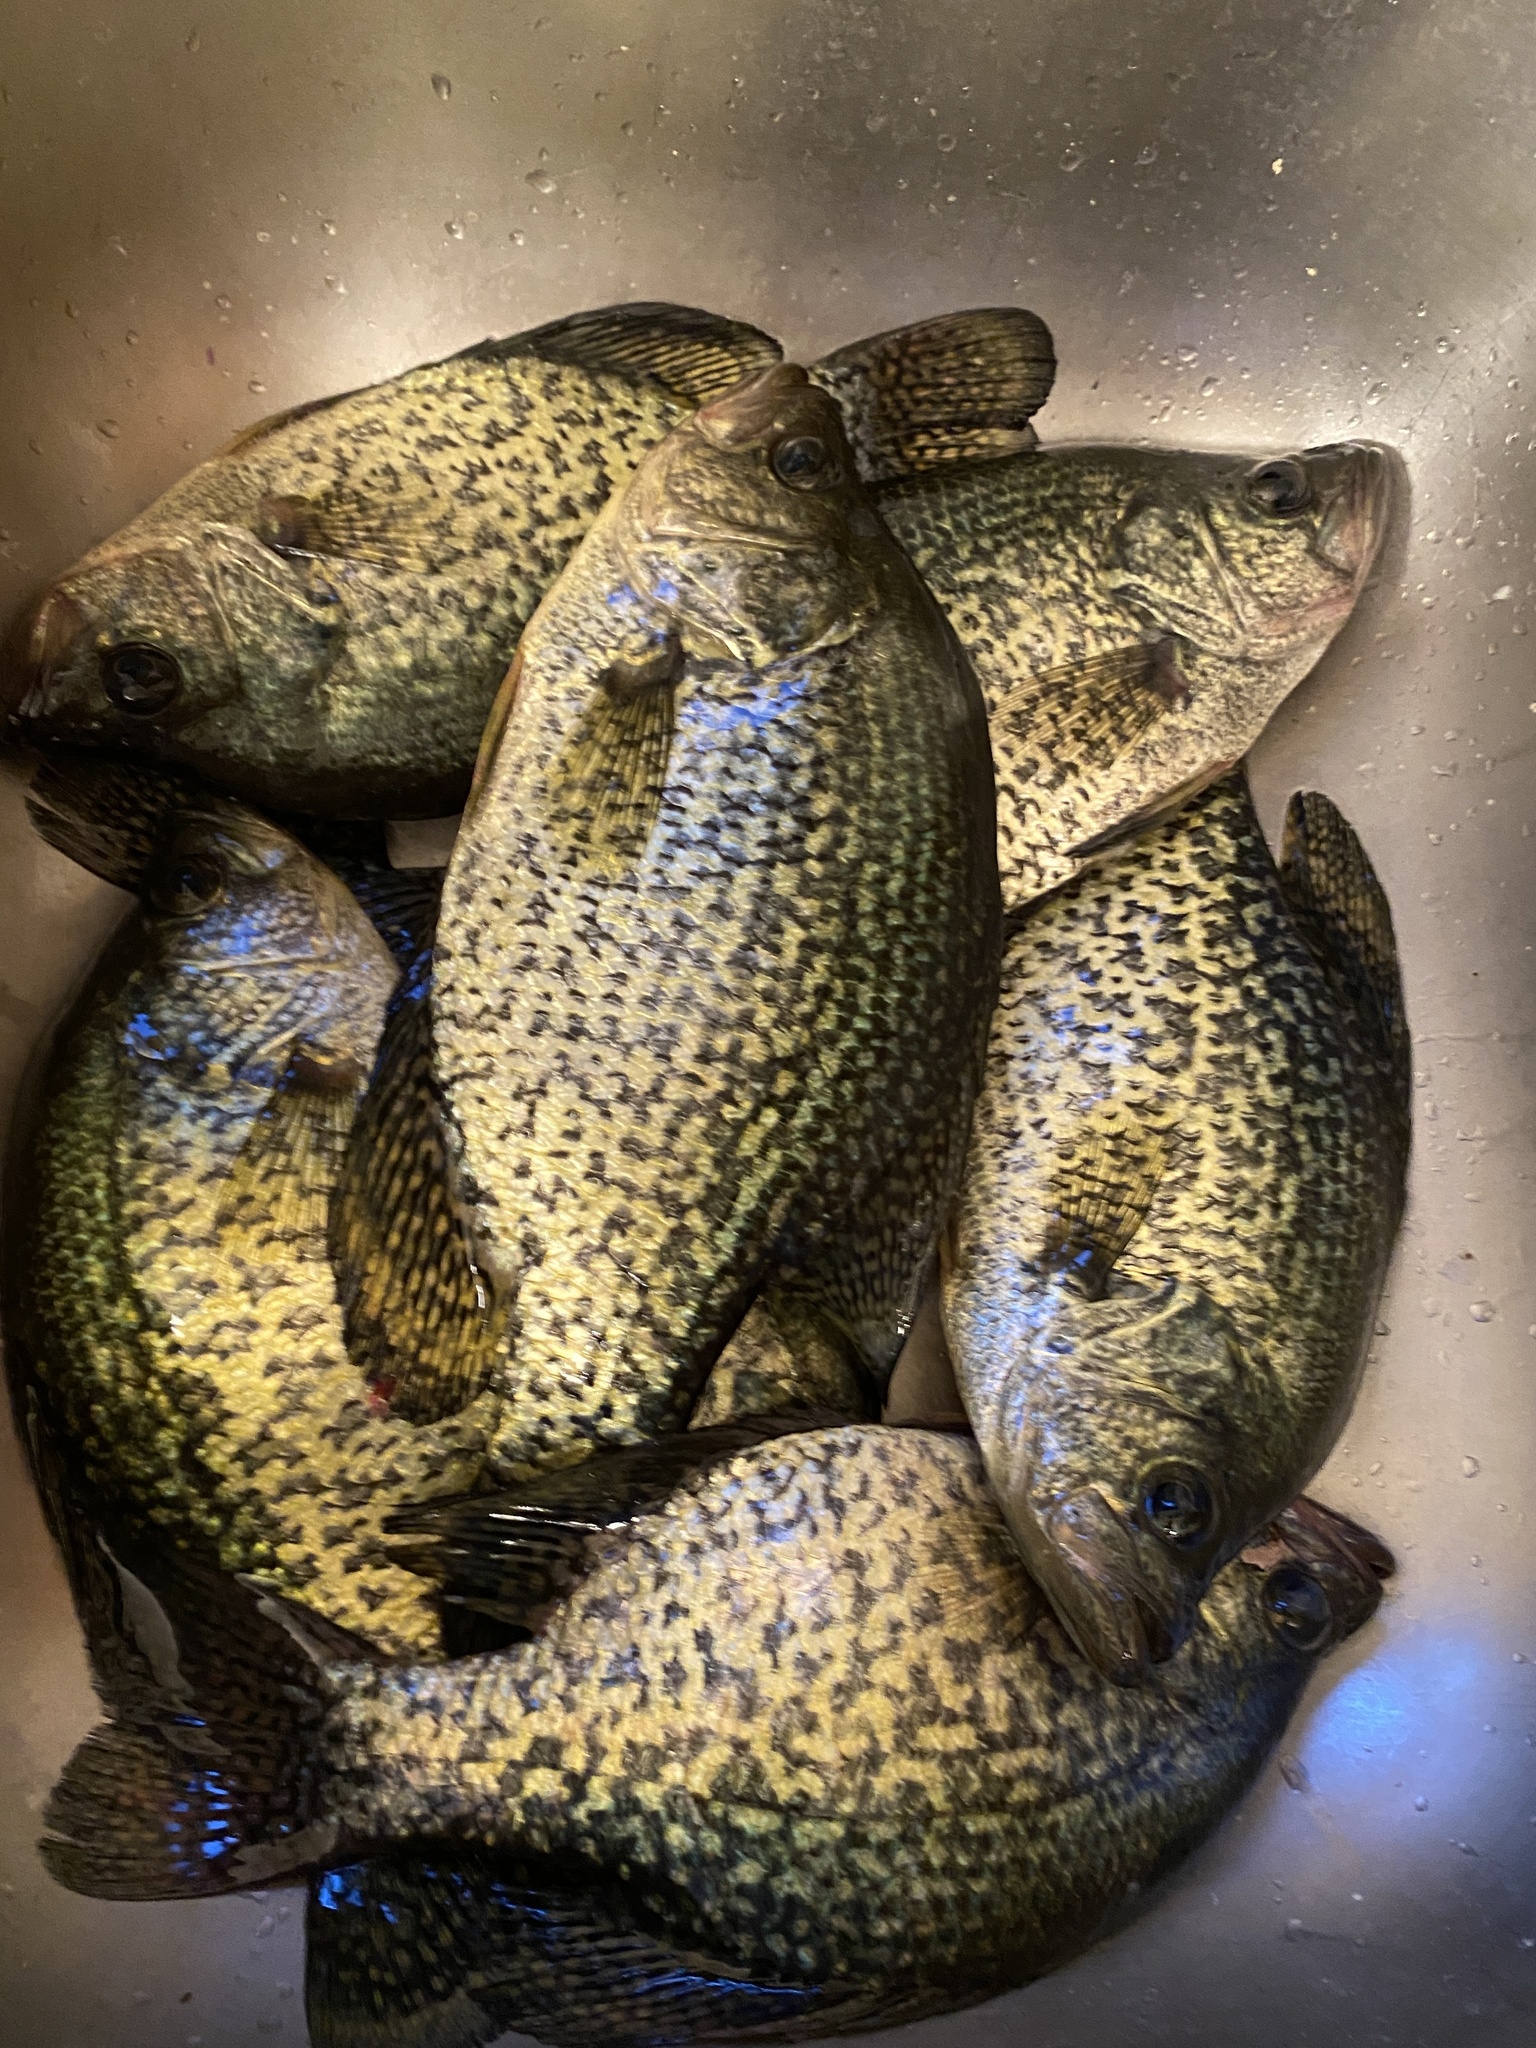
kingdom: Animalia
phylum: Chordata
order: Perciformes
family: Centrarchidae
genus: Pomoxis
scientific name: Pomoxis nigromaculatus
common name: Black crappie
